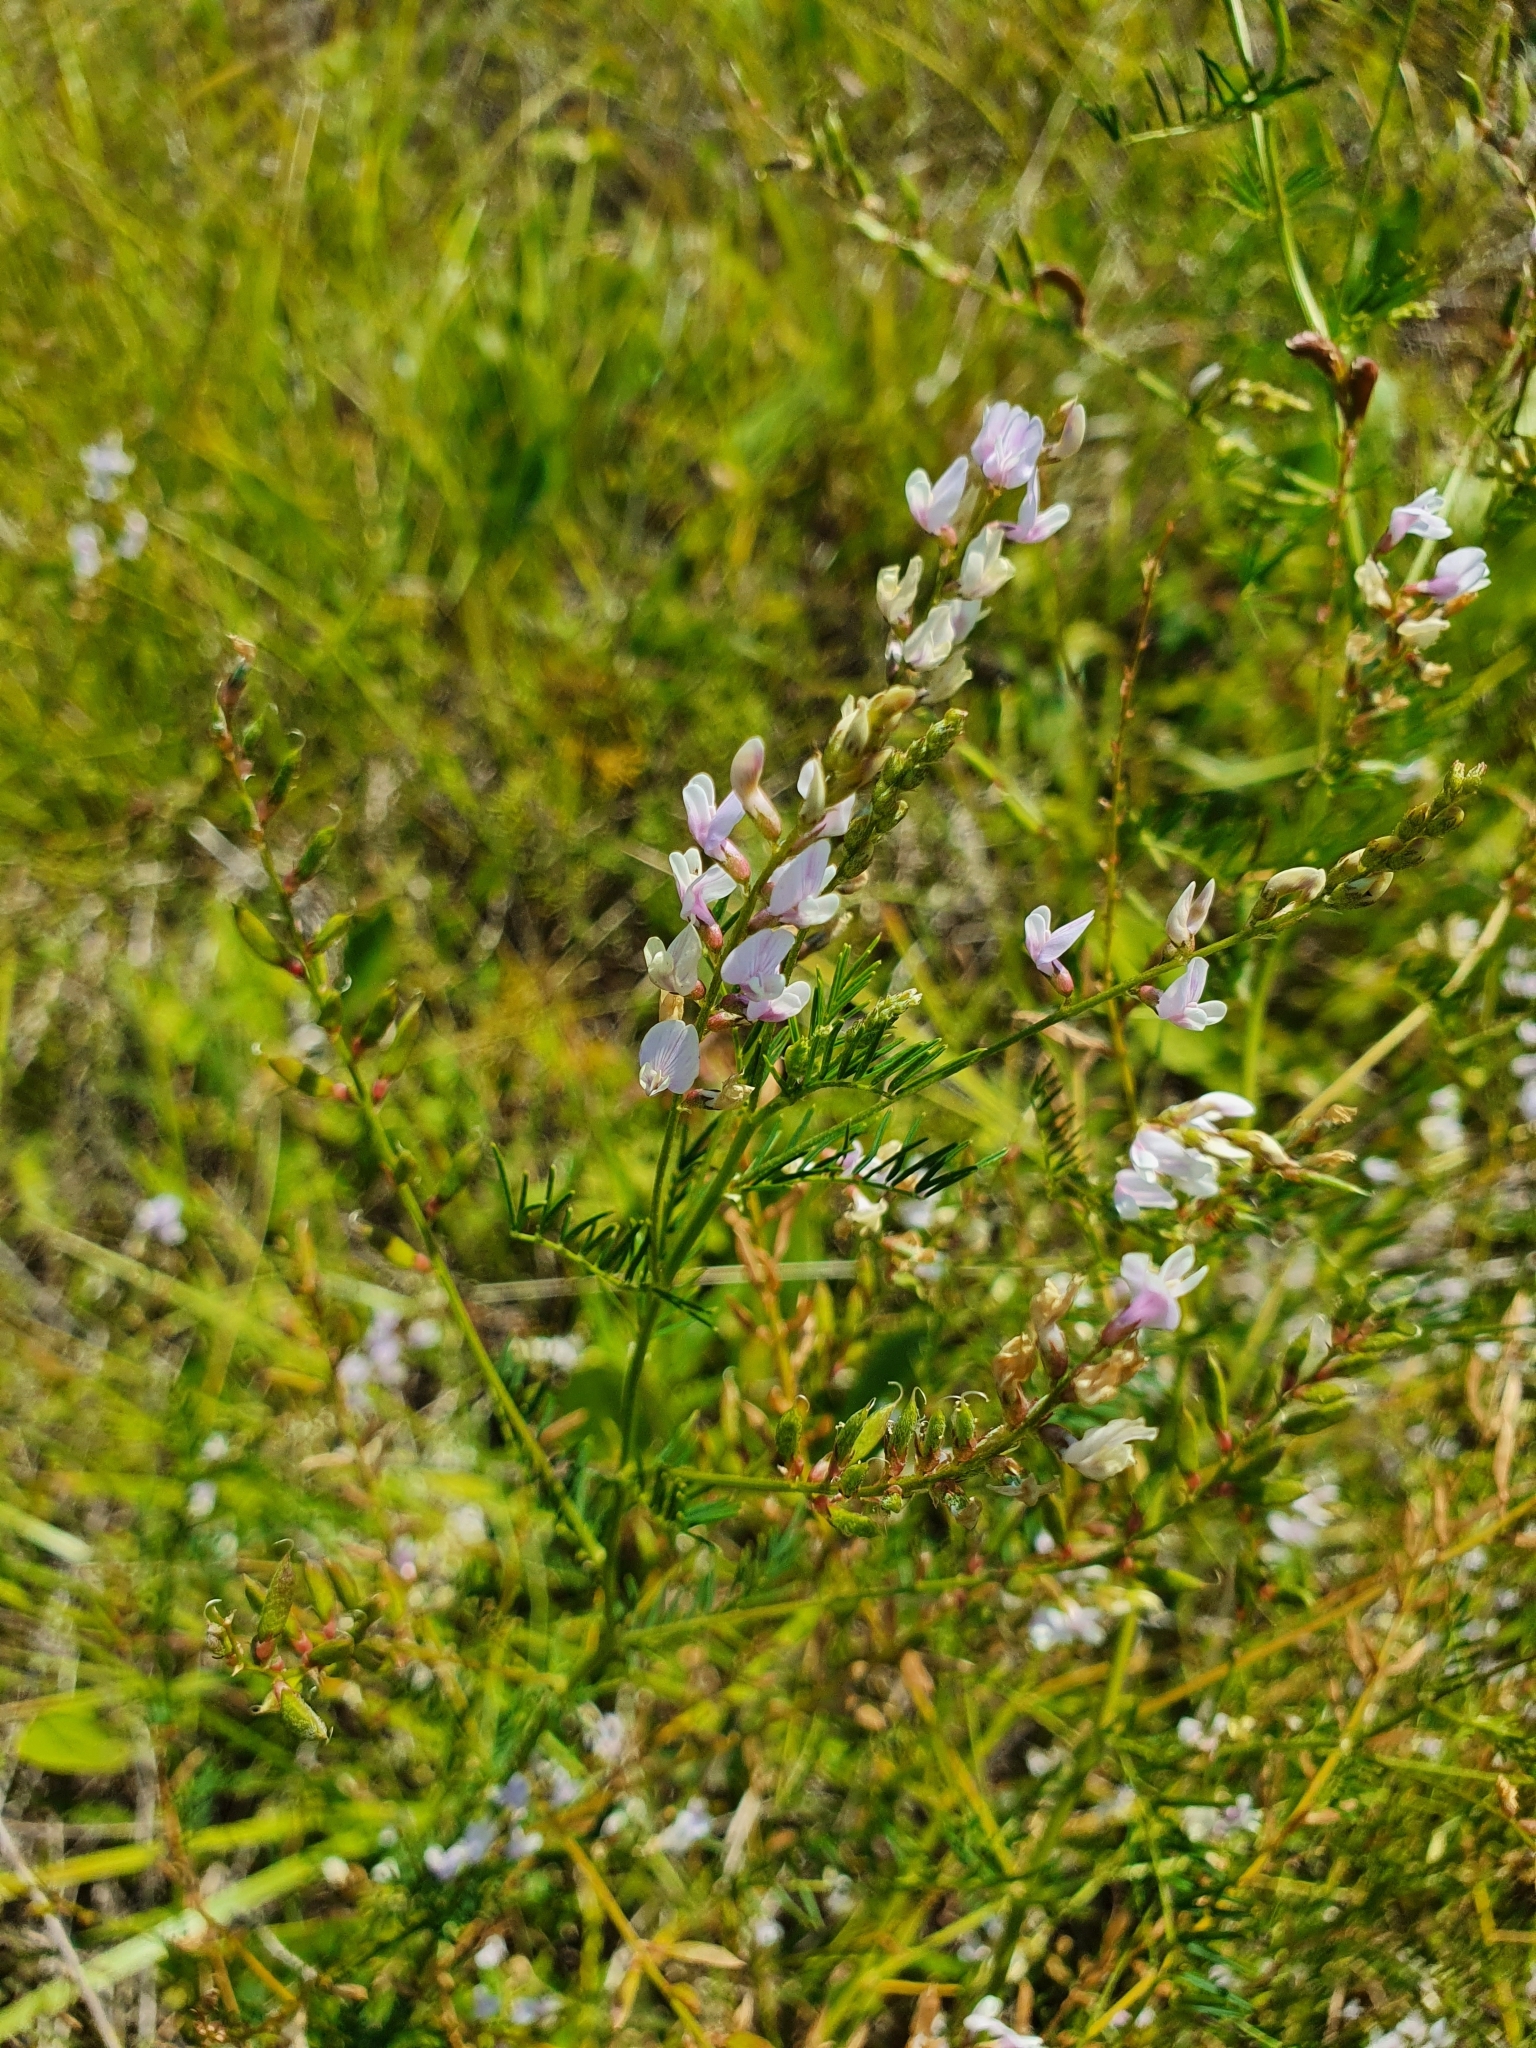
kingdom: Plantae
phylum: Tracheophyta
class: Magnoliopsida
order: Fabales
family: Fabaceae
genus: Astragalus
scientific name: Astragalus sulcatus
